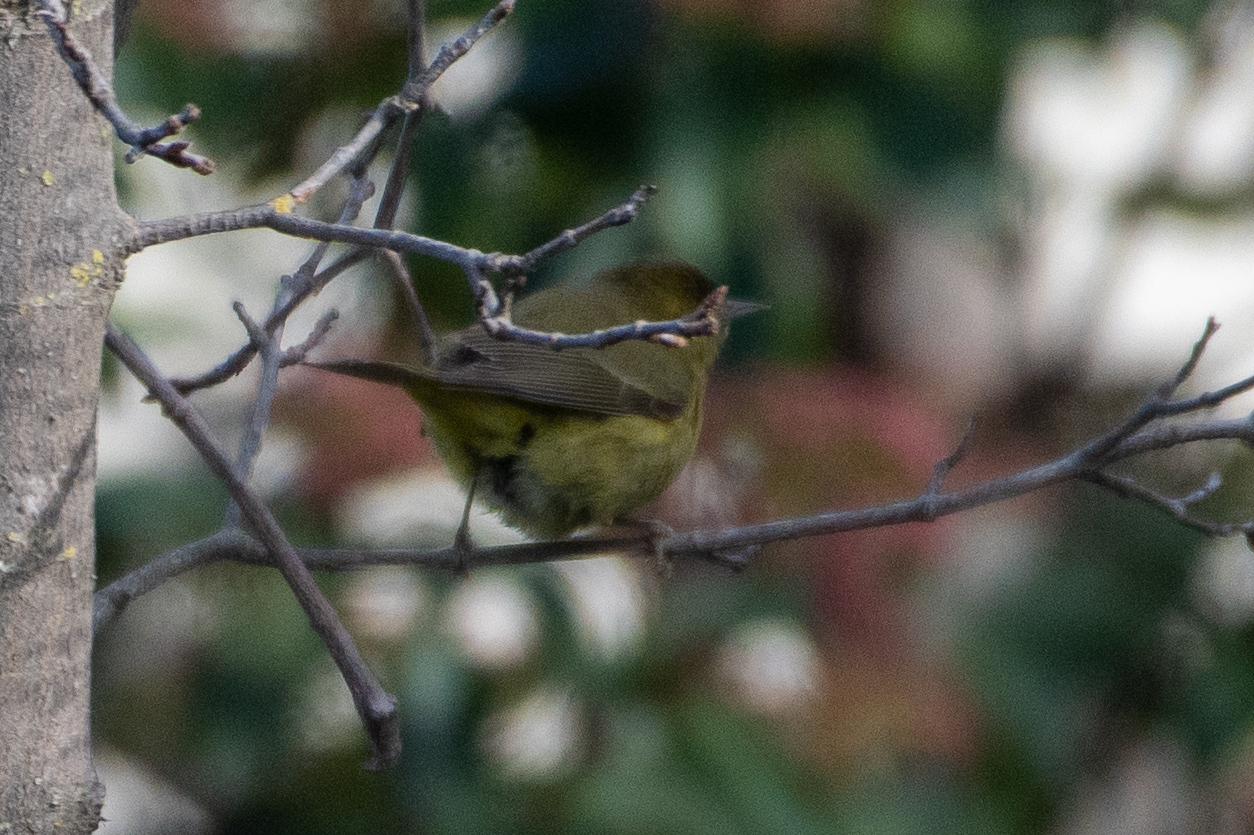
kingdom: Animalia
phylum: Chordata
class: Aves
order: Passeriformes
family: Parulidae
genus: Leiothlypis
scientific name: Leiothlypis celata
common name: Orange-crowned warbler
